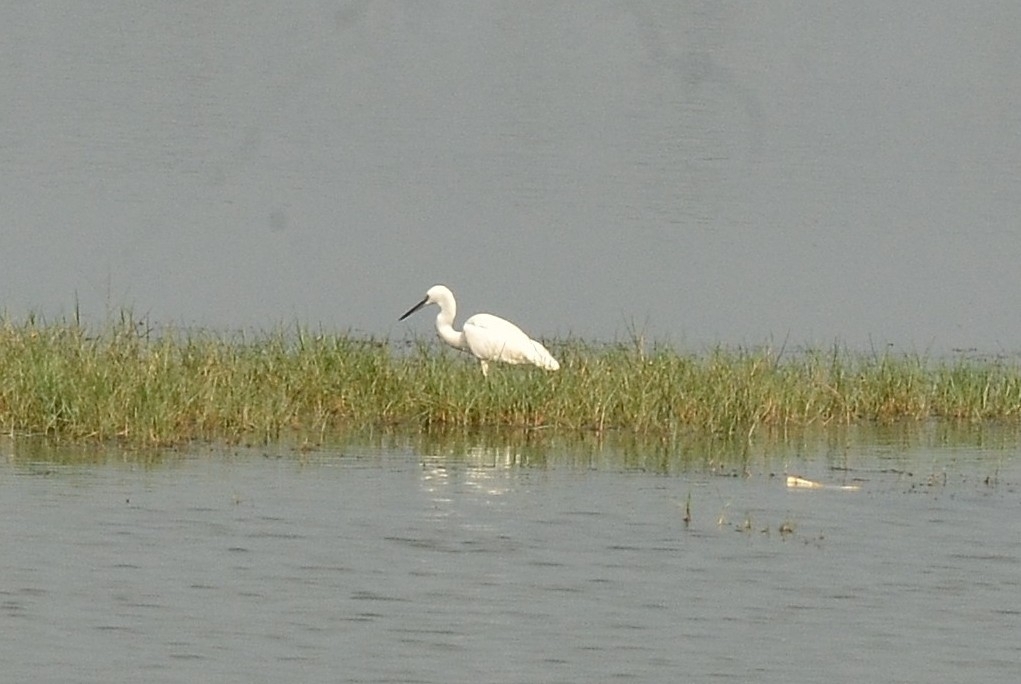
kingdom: Animalia
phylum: Chordata
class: Aves
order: Pelecaniformes
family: Ardeidae
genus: Egretta
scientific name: Egretta garzetta
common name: Little egret
